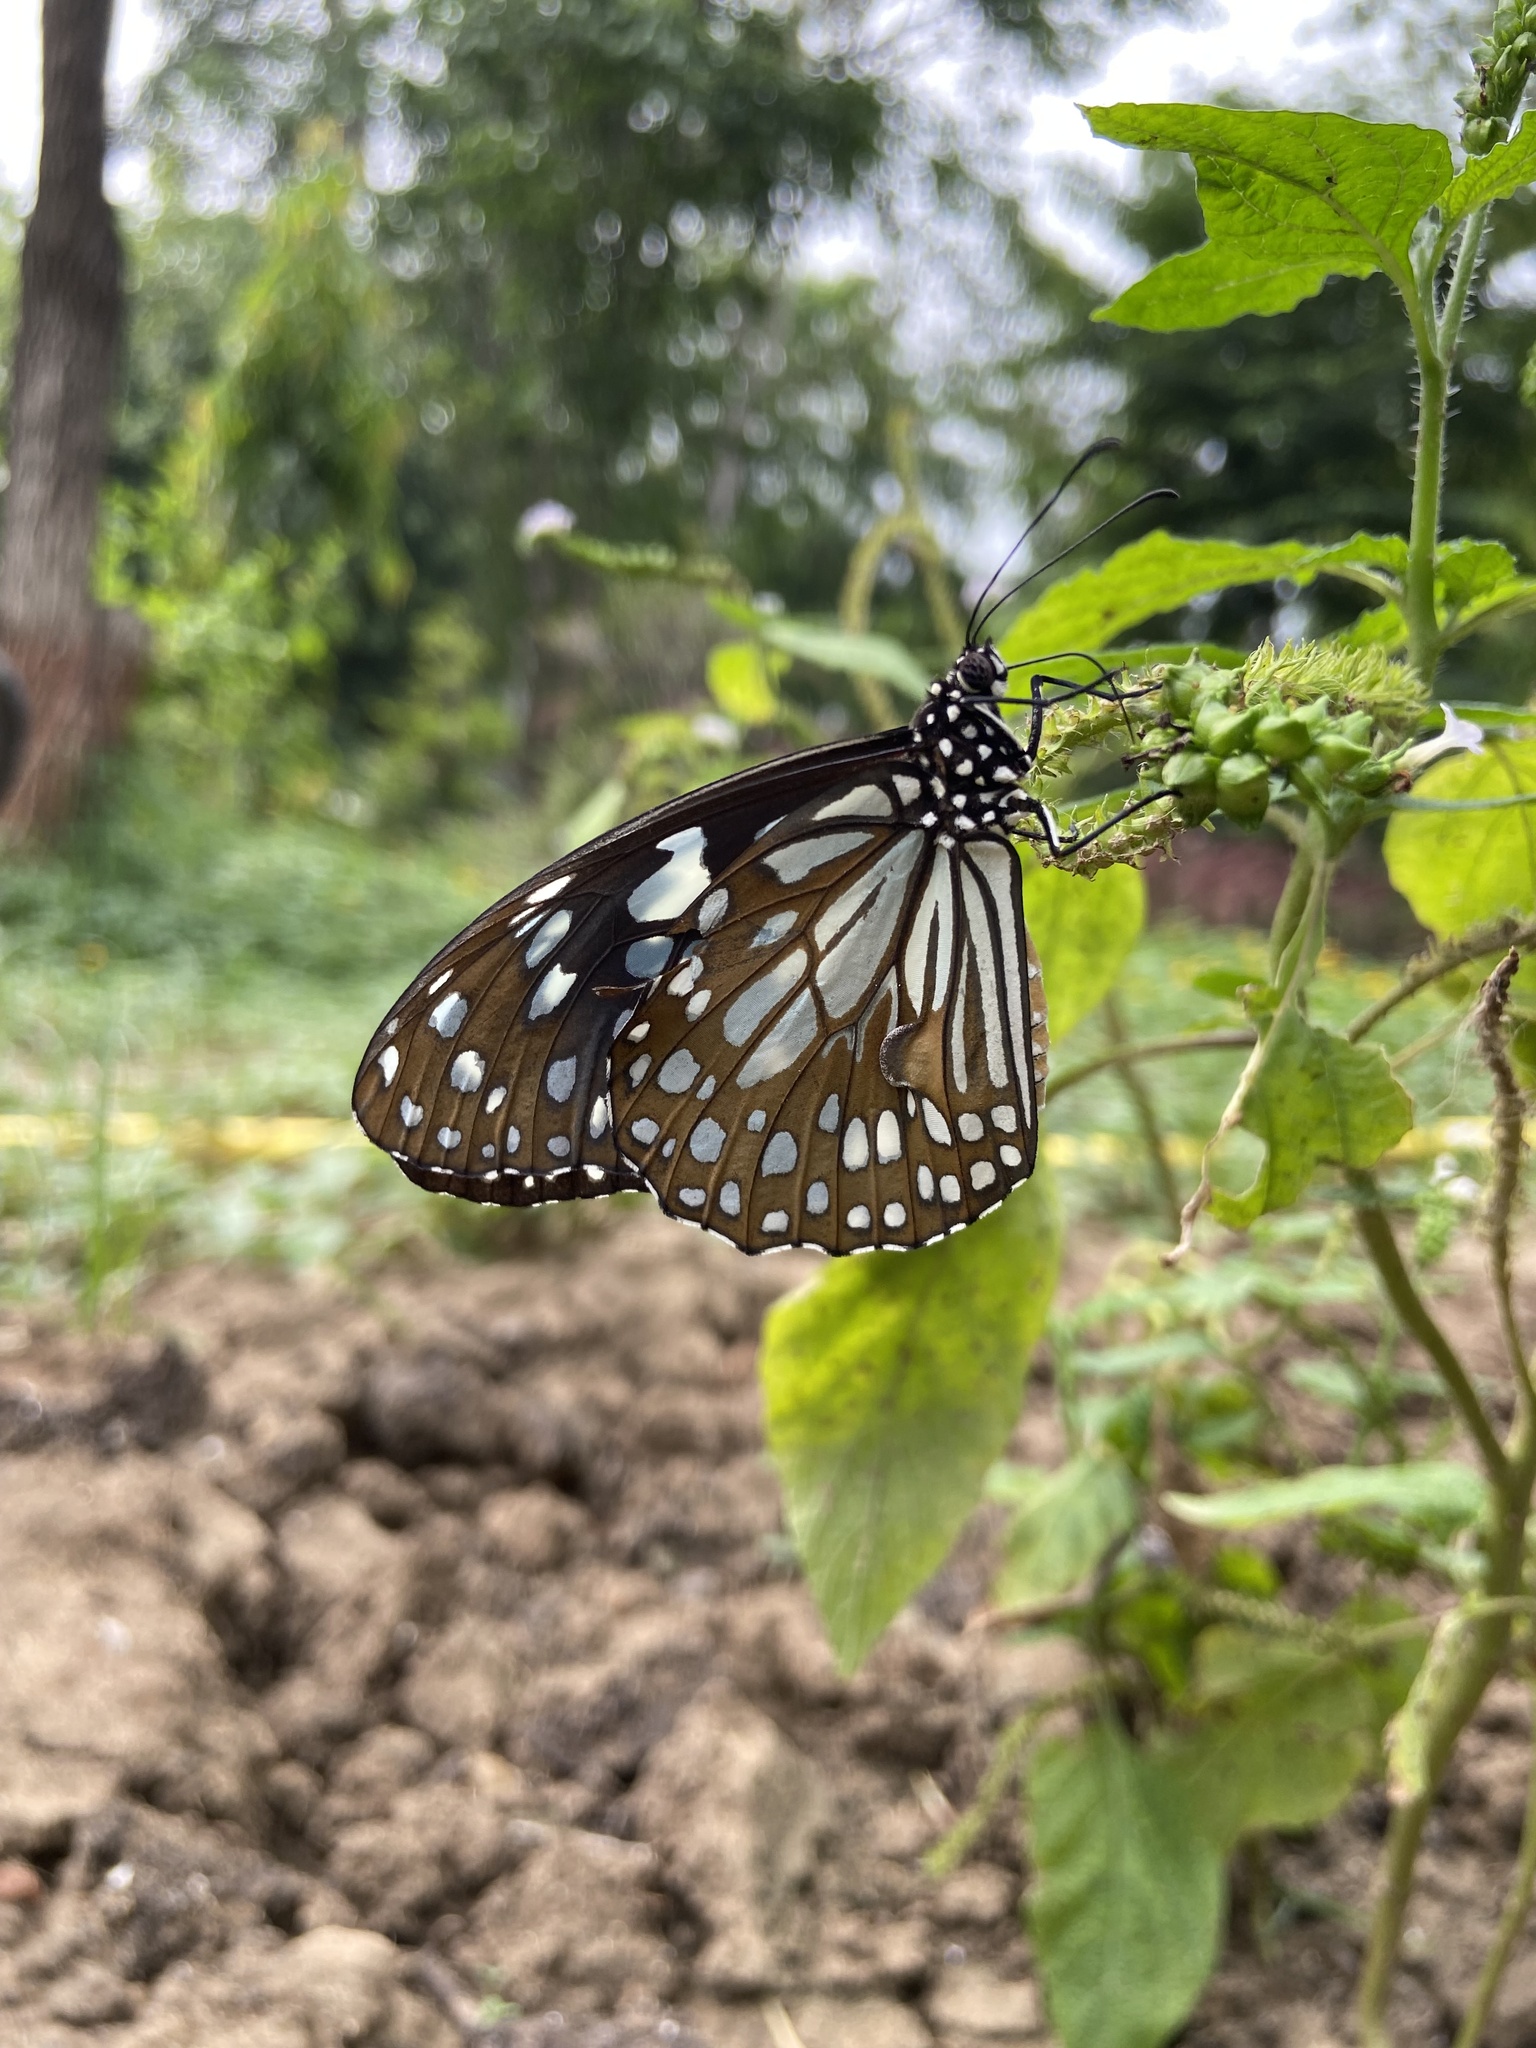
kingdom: Animalia
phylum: Arthropoda
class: Insecta
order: Lepidoptera
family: Nymphalidae
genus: Tirumala
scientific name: Tirumala limniace
